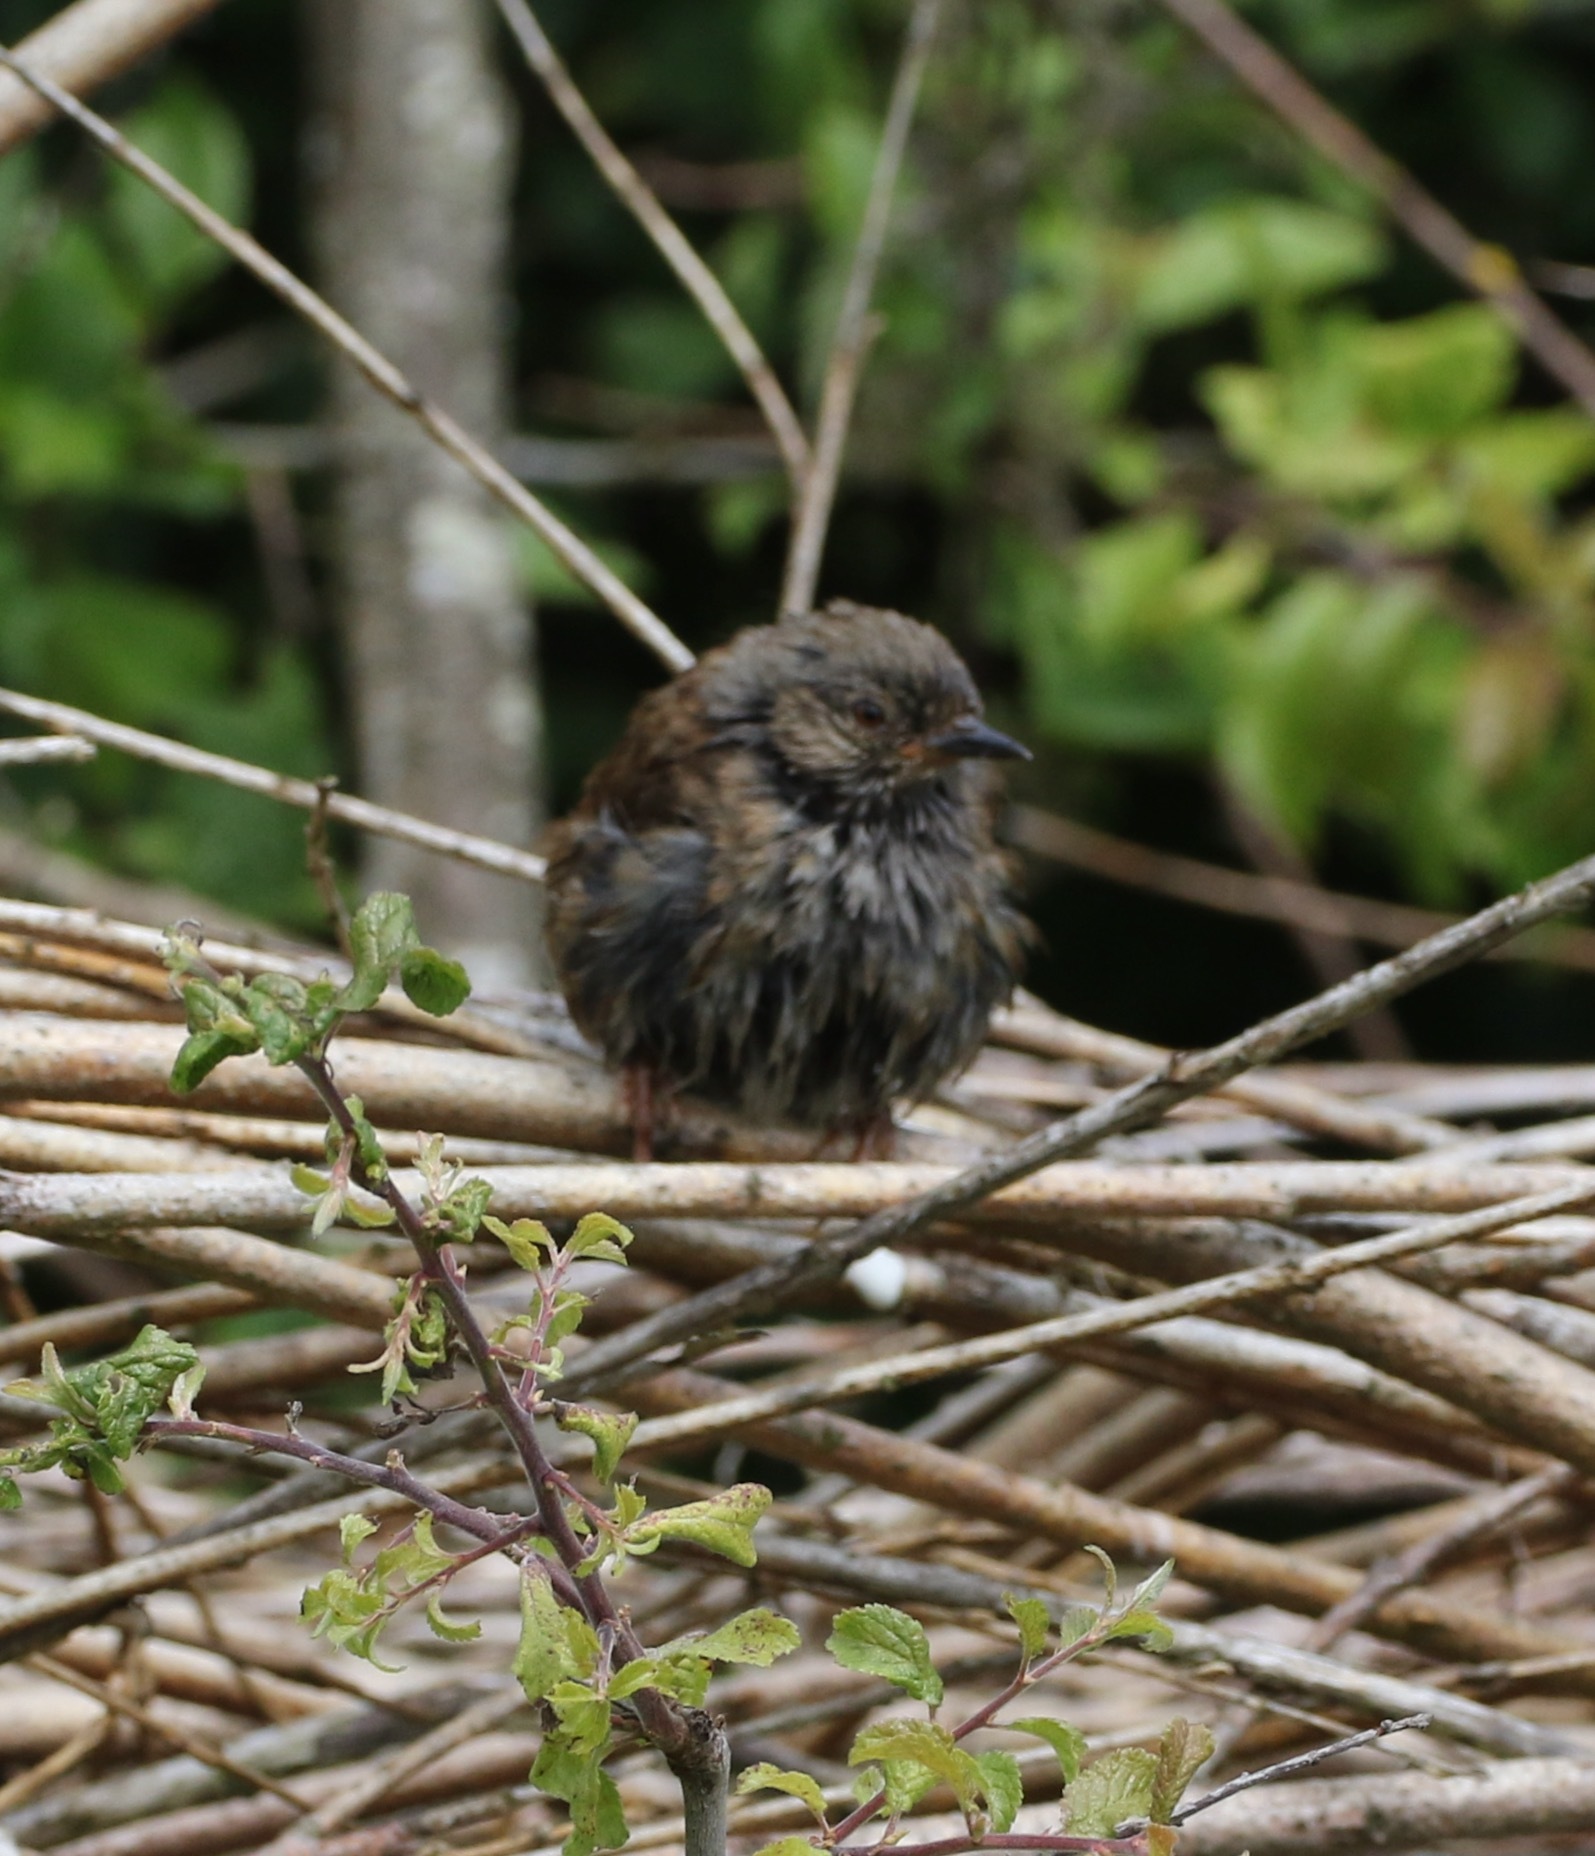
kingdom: Animalia
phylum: Chordata
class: Aves
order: Passeriformes
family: Prunellidae
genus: Prunella
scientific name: Prunella modularis
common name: Dunnock
